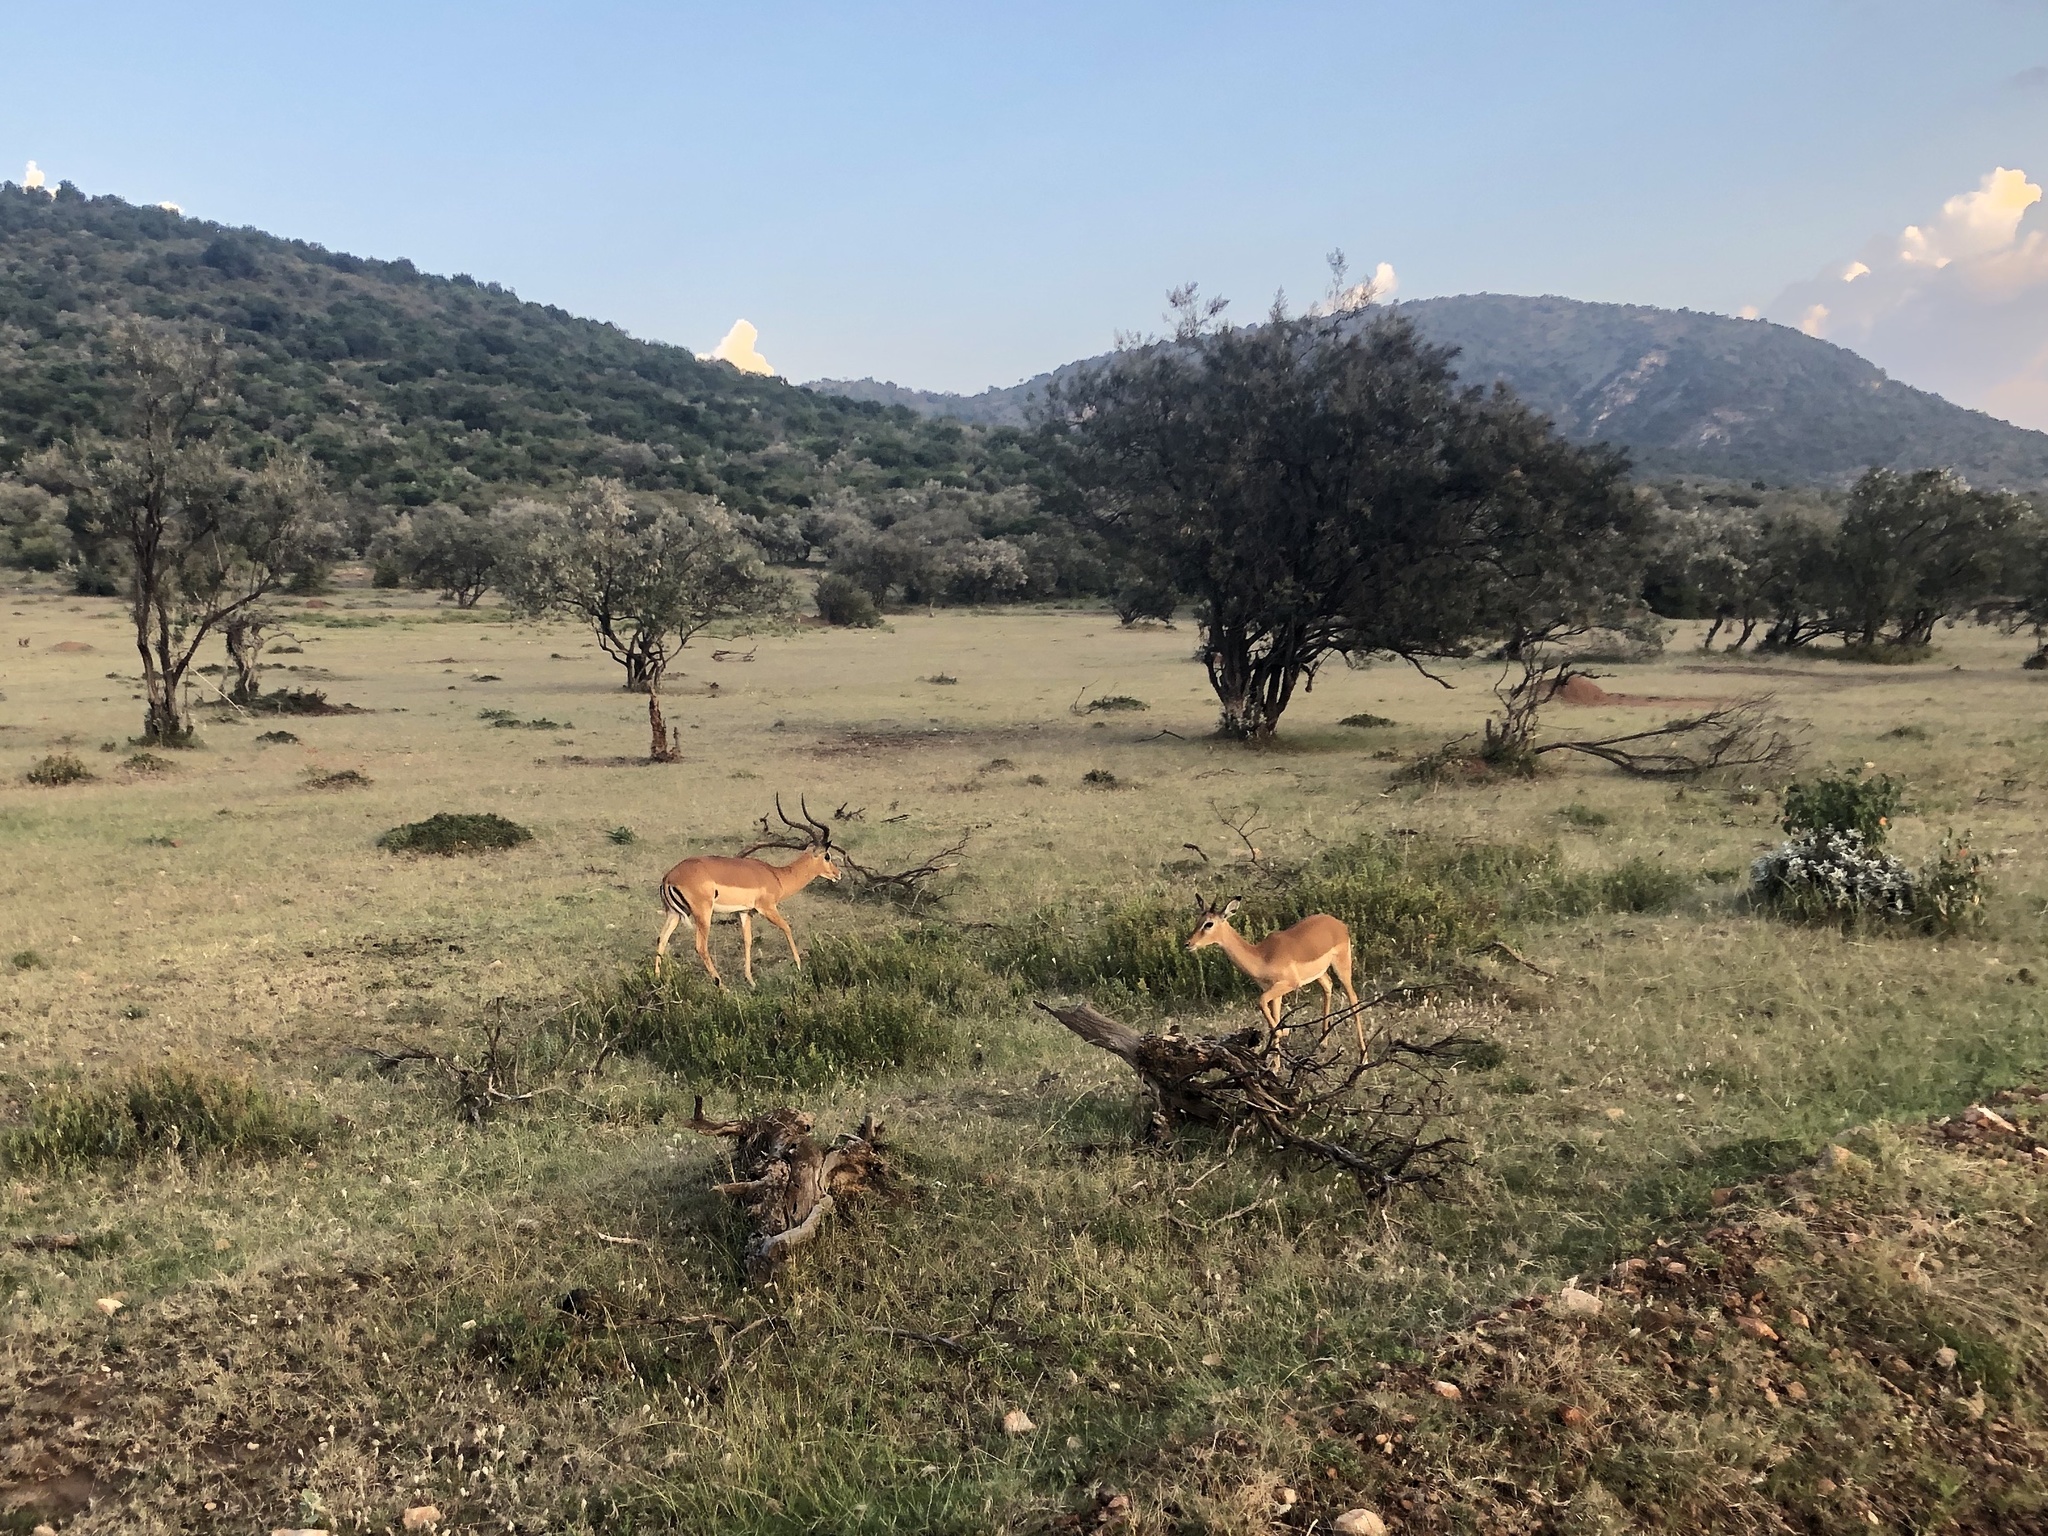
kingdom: Animalia
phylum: Chordata
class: Mammalia
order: Artiodactyla
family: Bovidae
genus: Aepyceros
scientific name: Aepyceros melampus
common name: Impala
